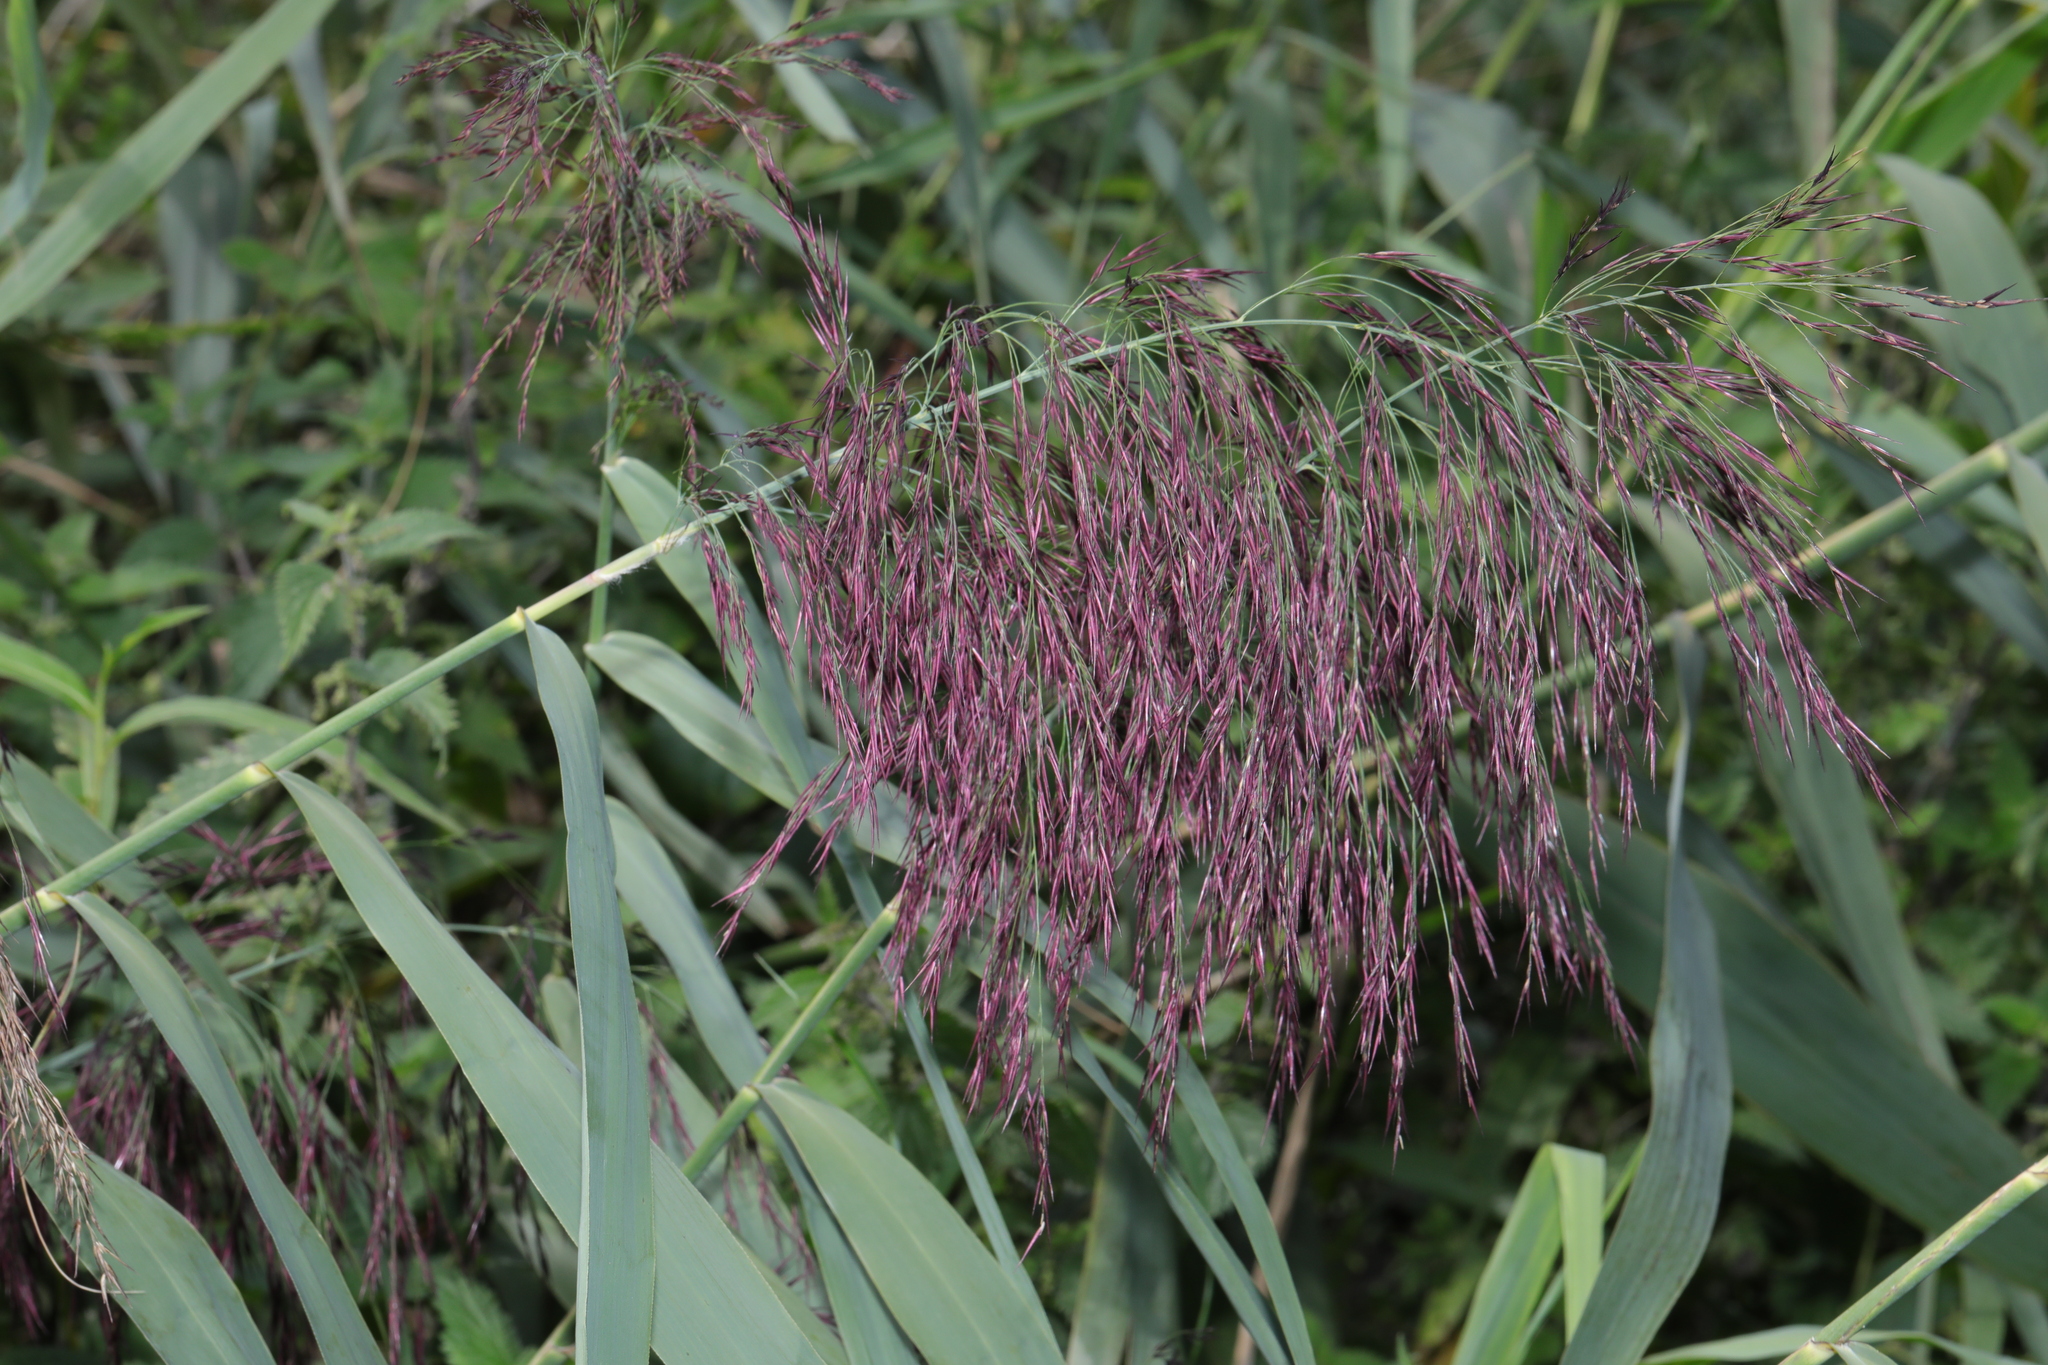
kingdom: Plantae
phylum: Tracheophyta
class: Liliopsida
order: Poales
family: Poaceae
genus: Phragmites
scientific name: Phragmites australis
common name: Common reed
